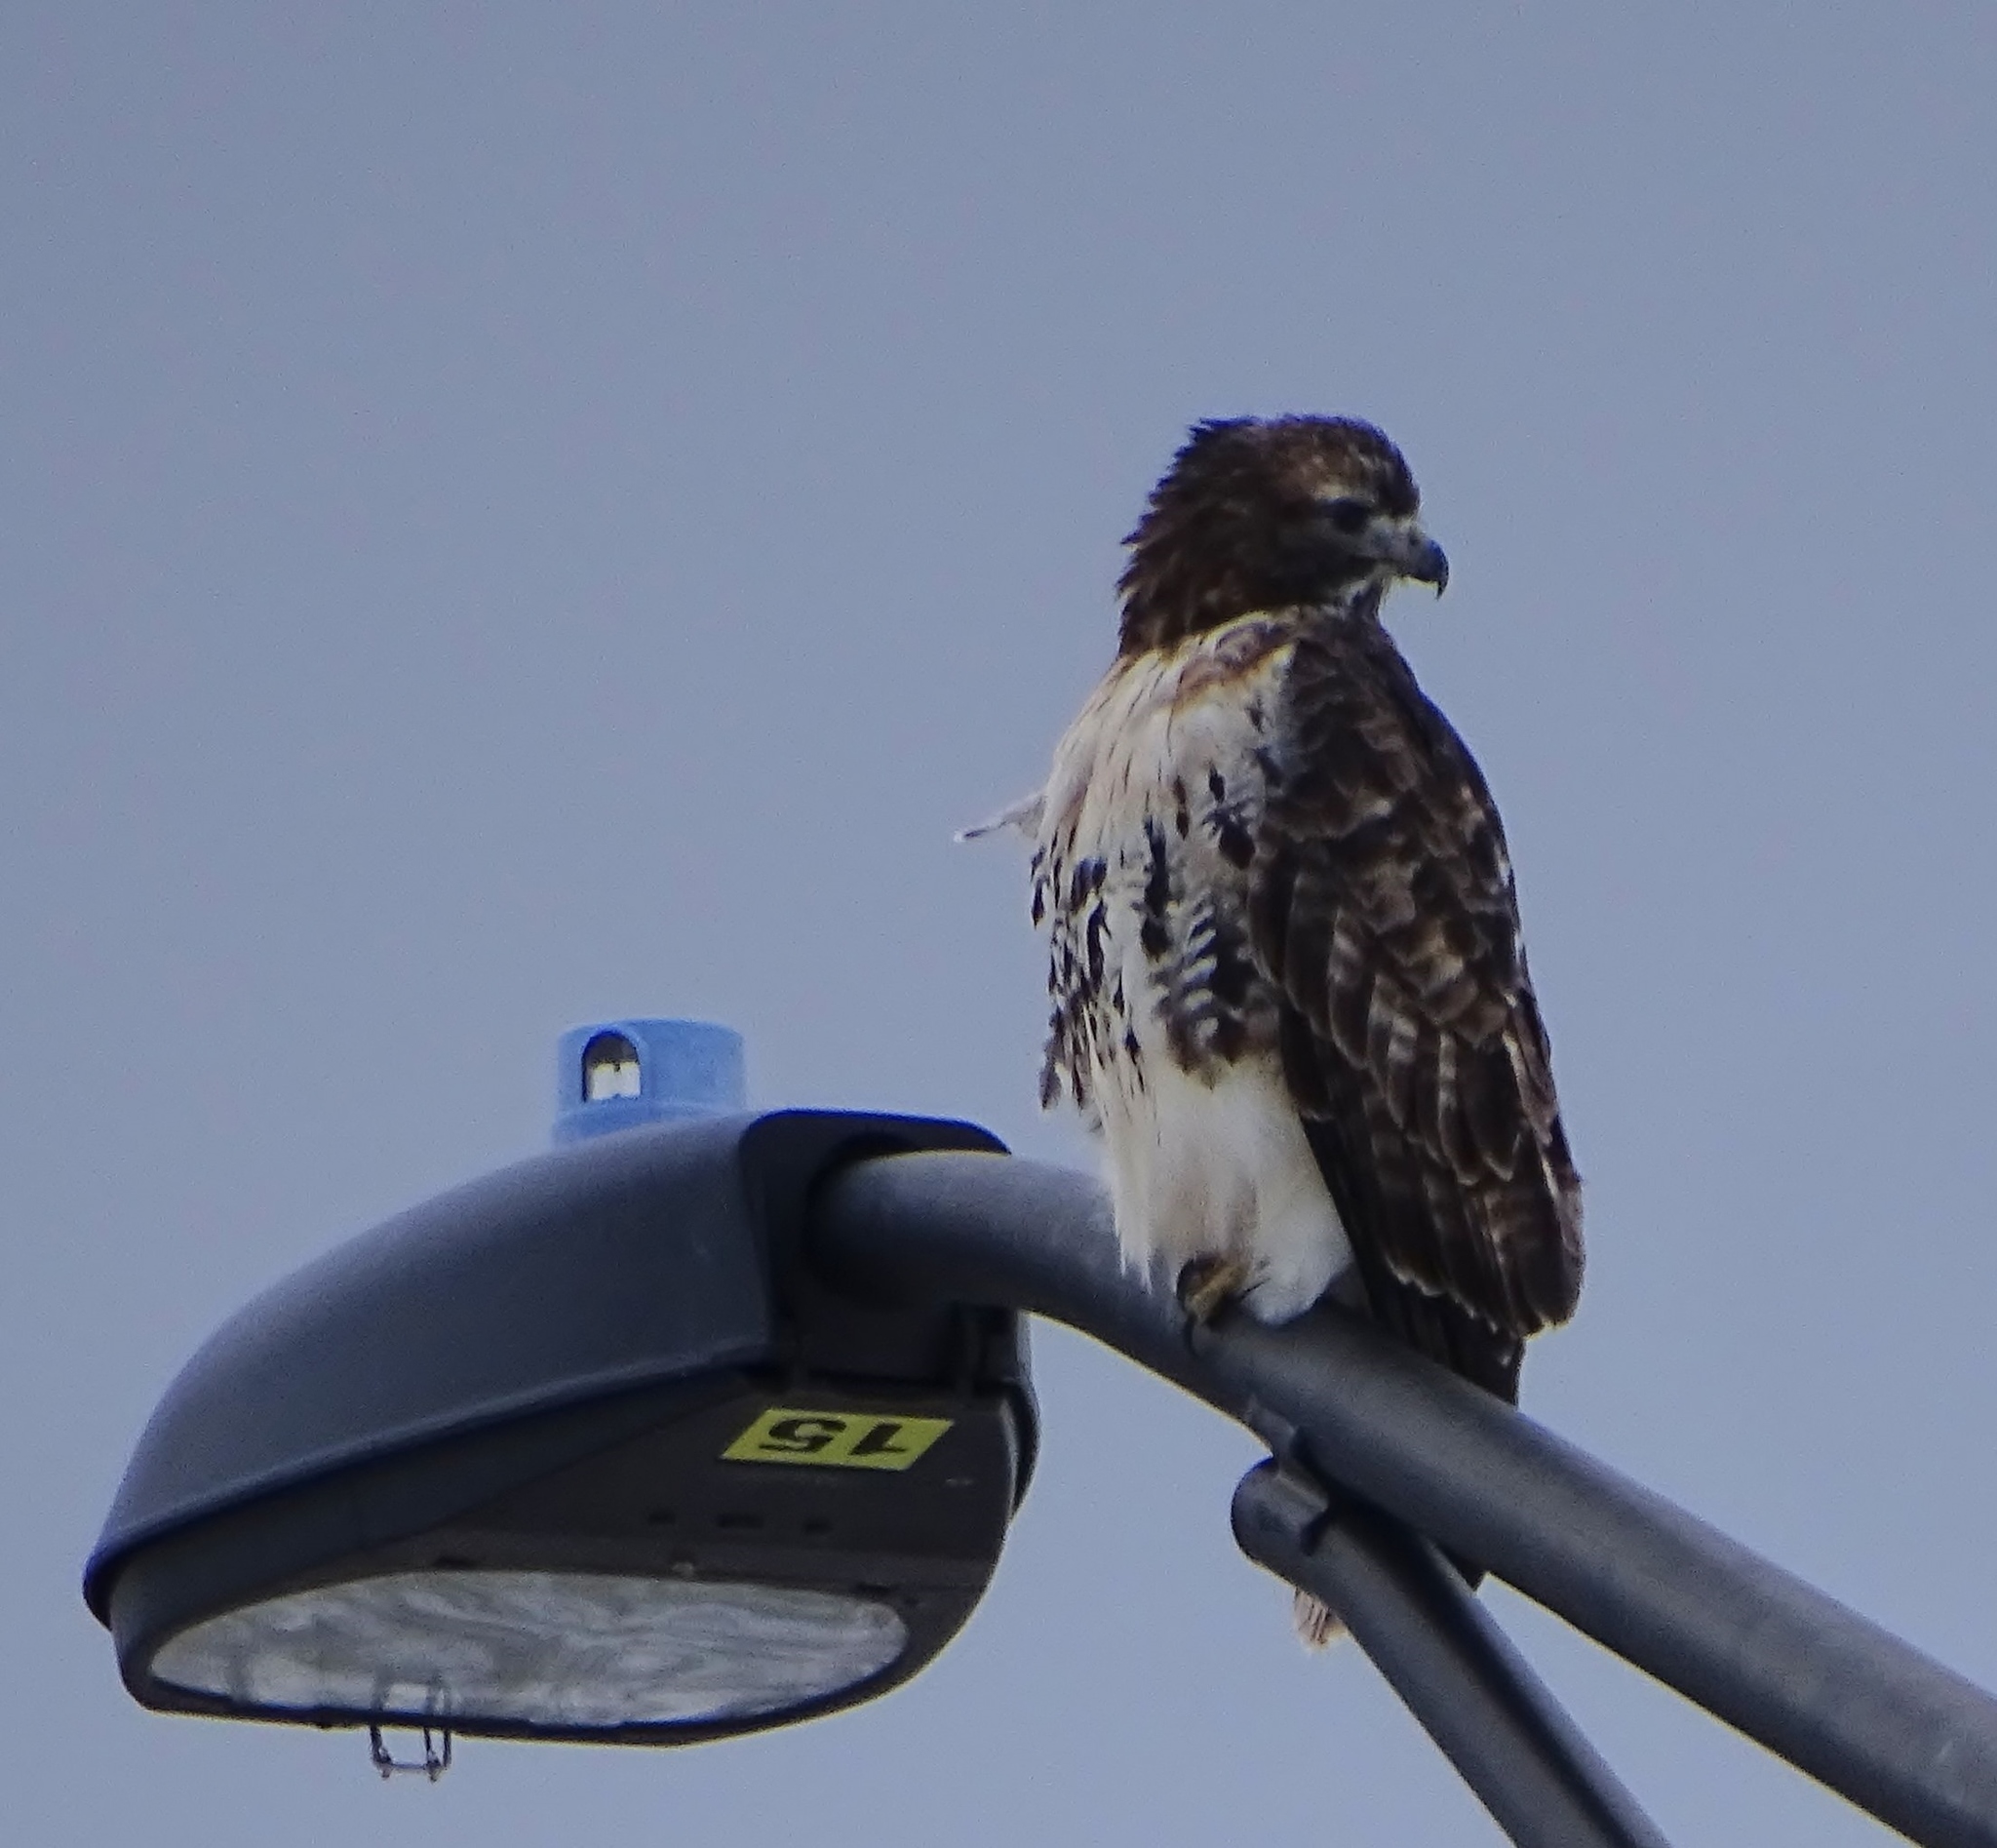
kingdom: Animalia
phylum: Chordata
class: Aves
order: Accipitriformes
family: Accipitridae
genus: Buteo
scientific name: Buteo jamaicensis
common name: Red-tailed hawk
